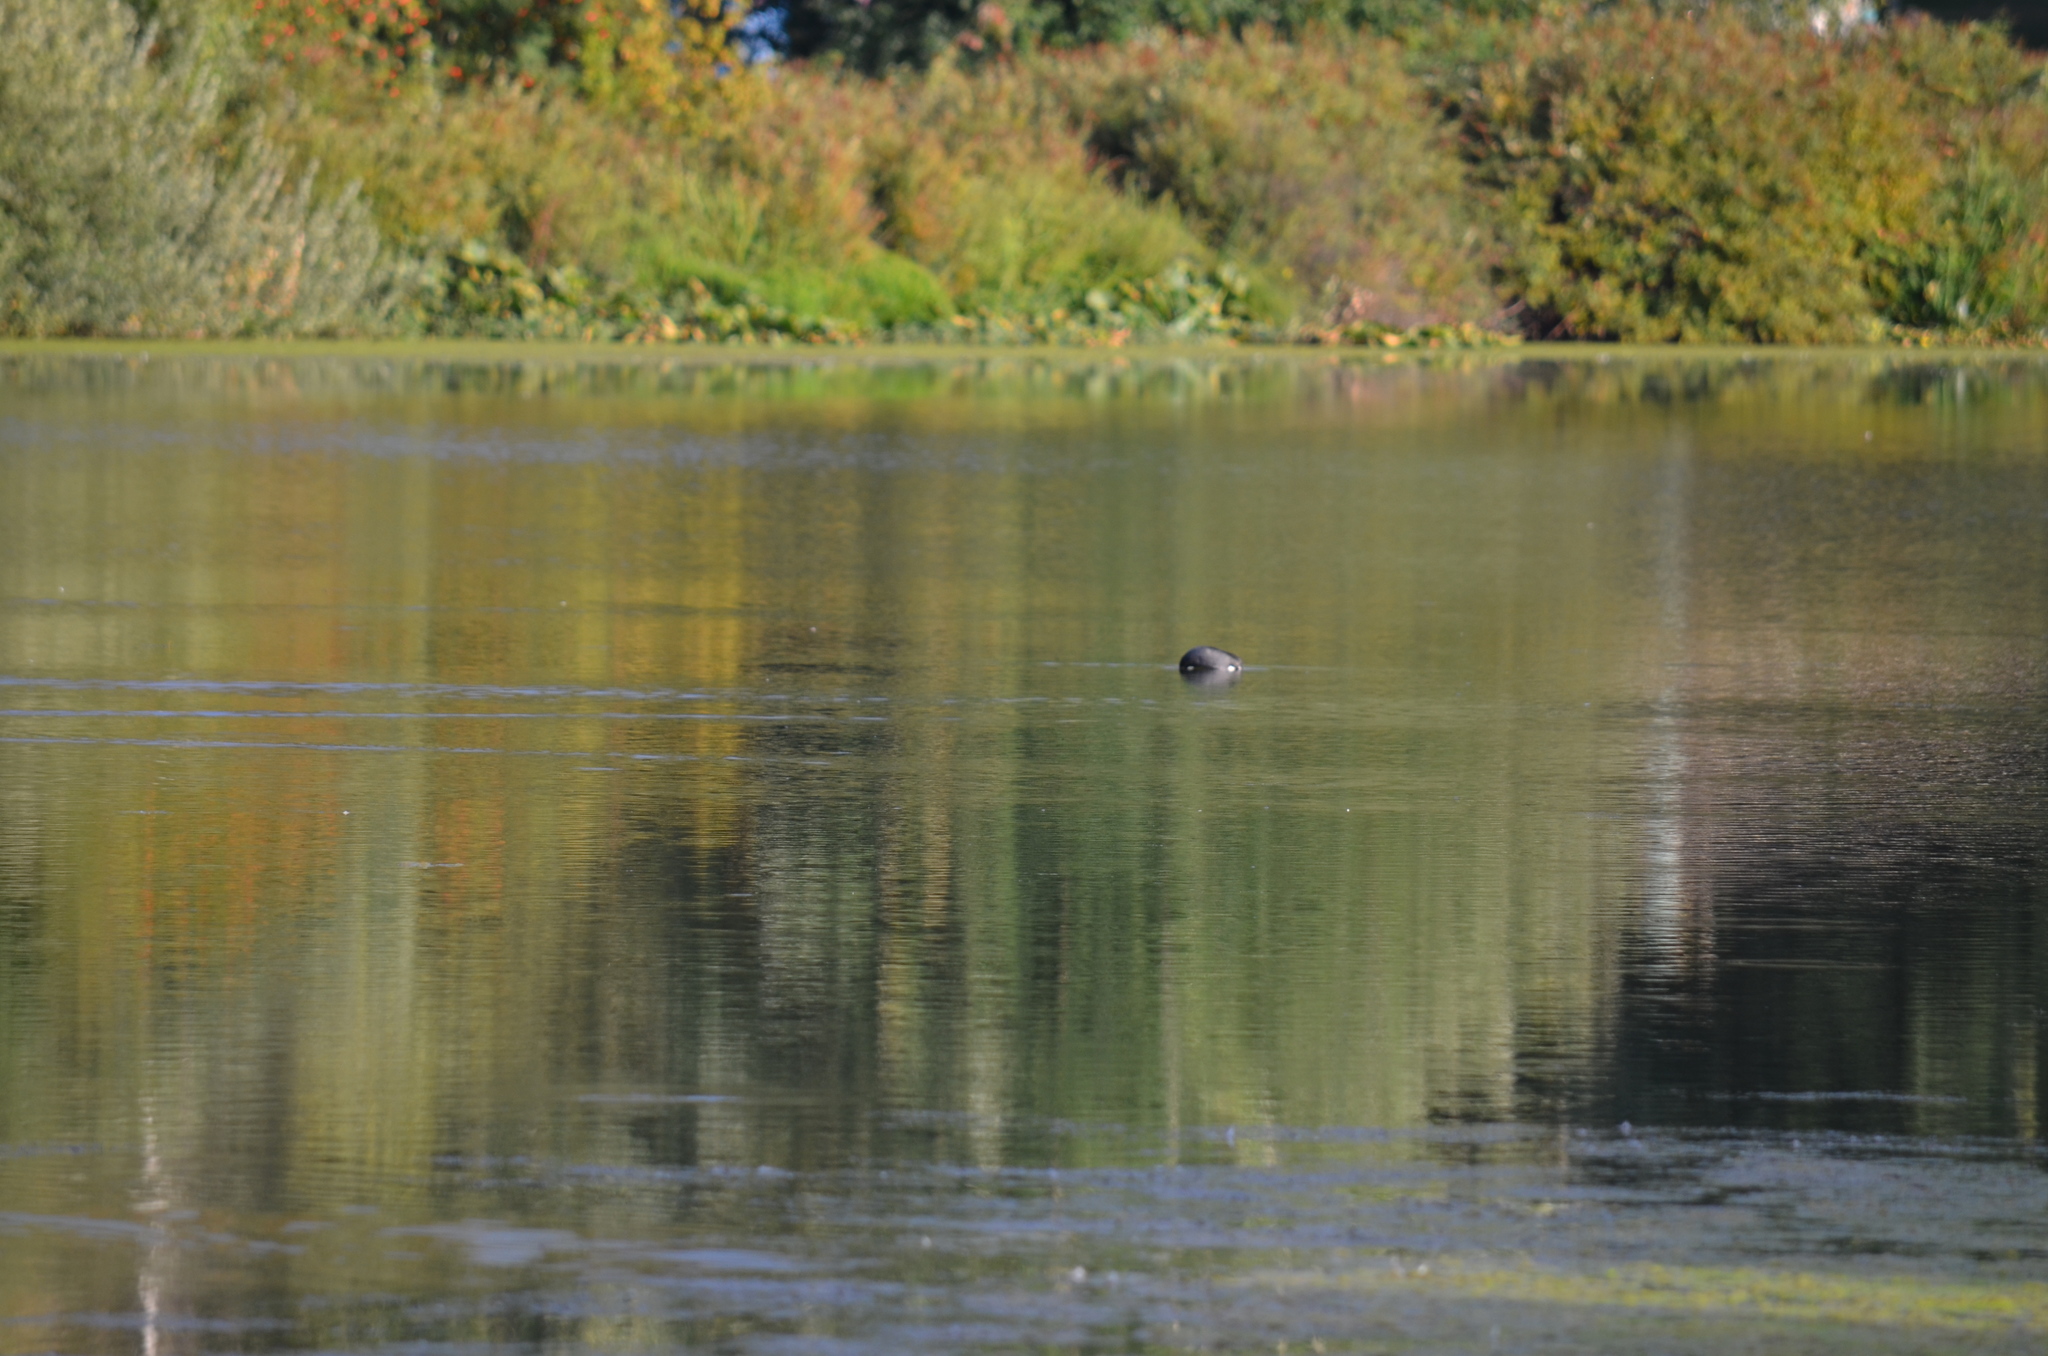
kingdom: Animalia
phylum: Chordata
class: Aves
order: Gruiformes
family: Rallidae
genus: Fulica
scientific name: Fulica americana
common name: American coot
